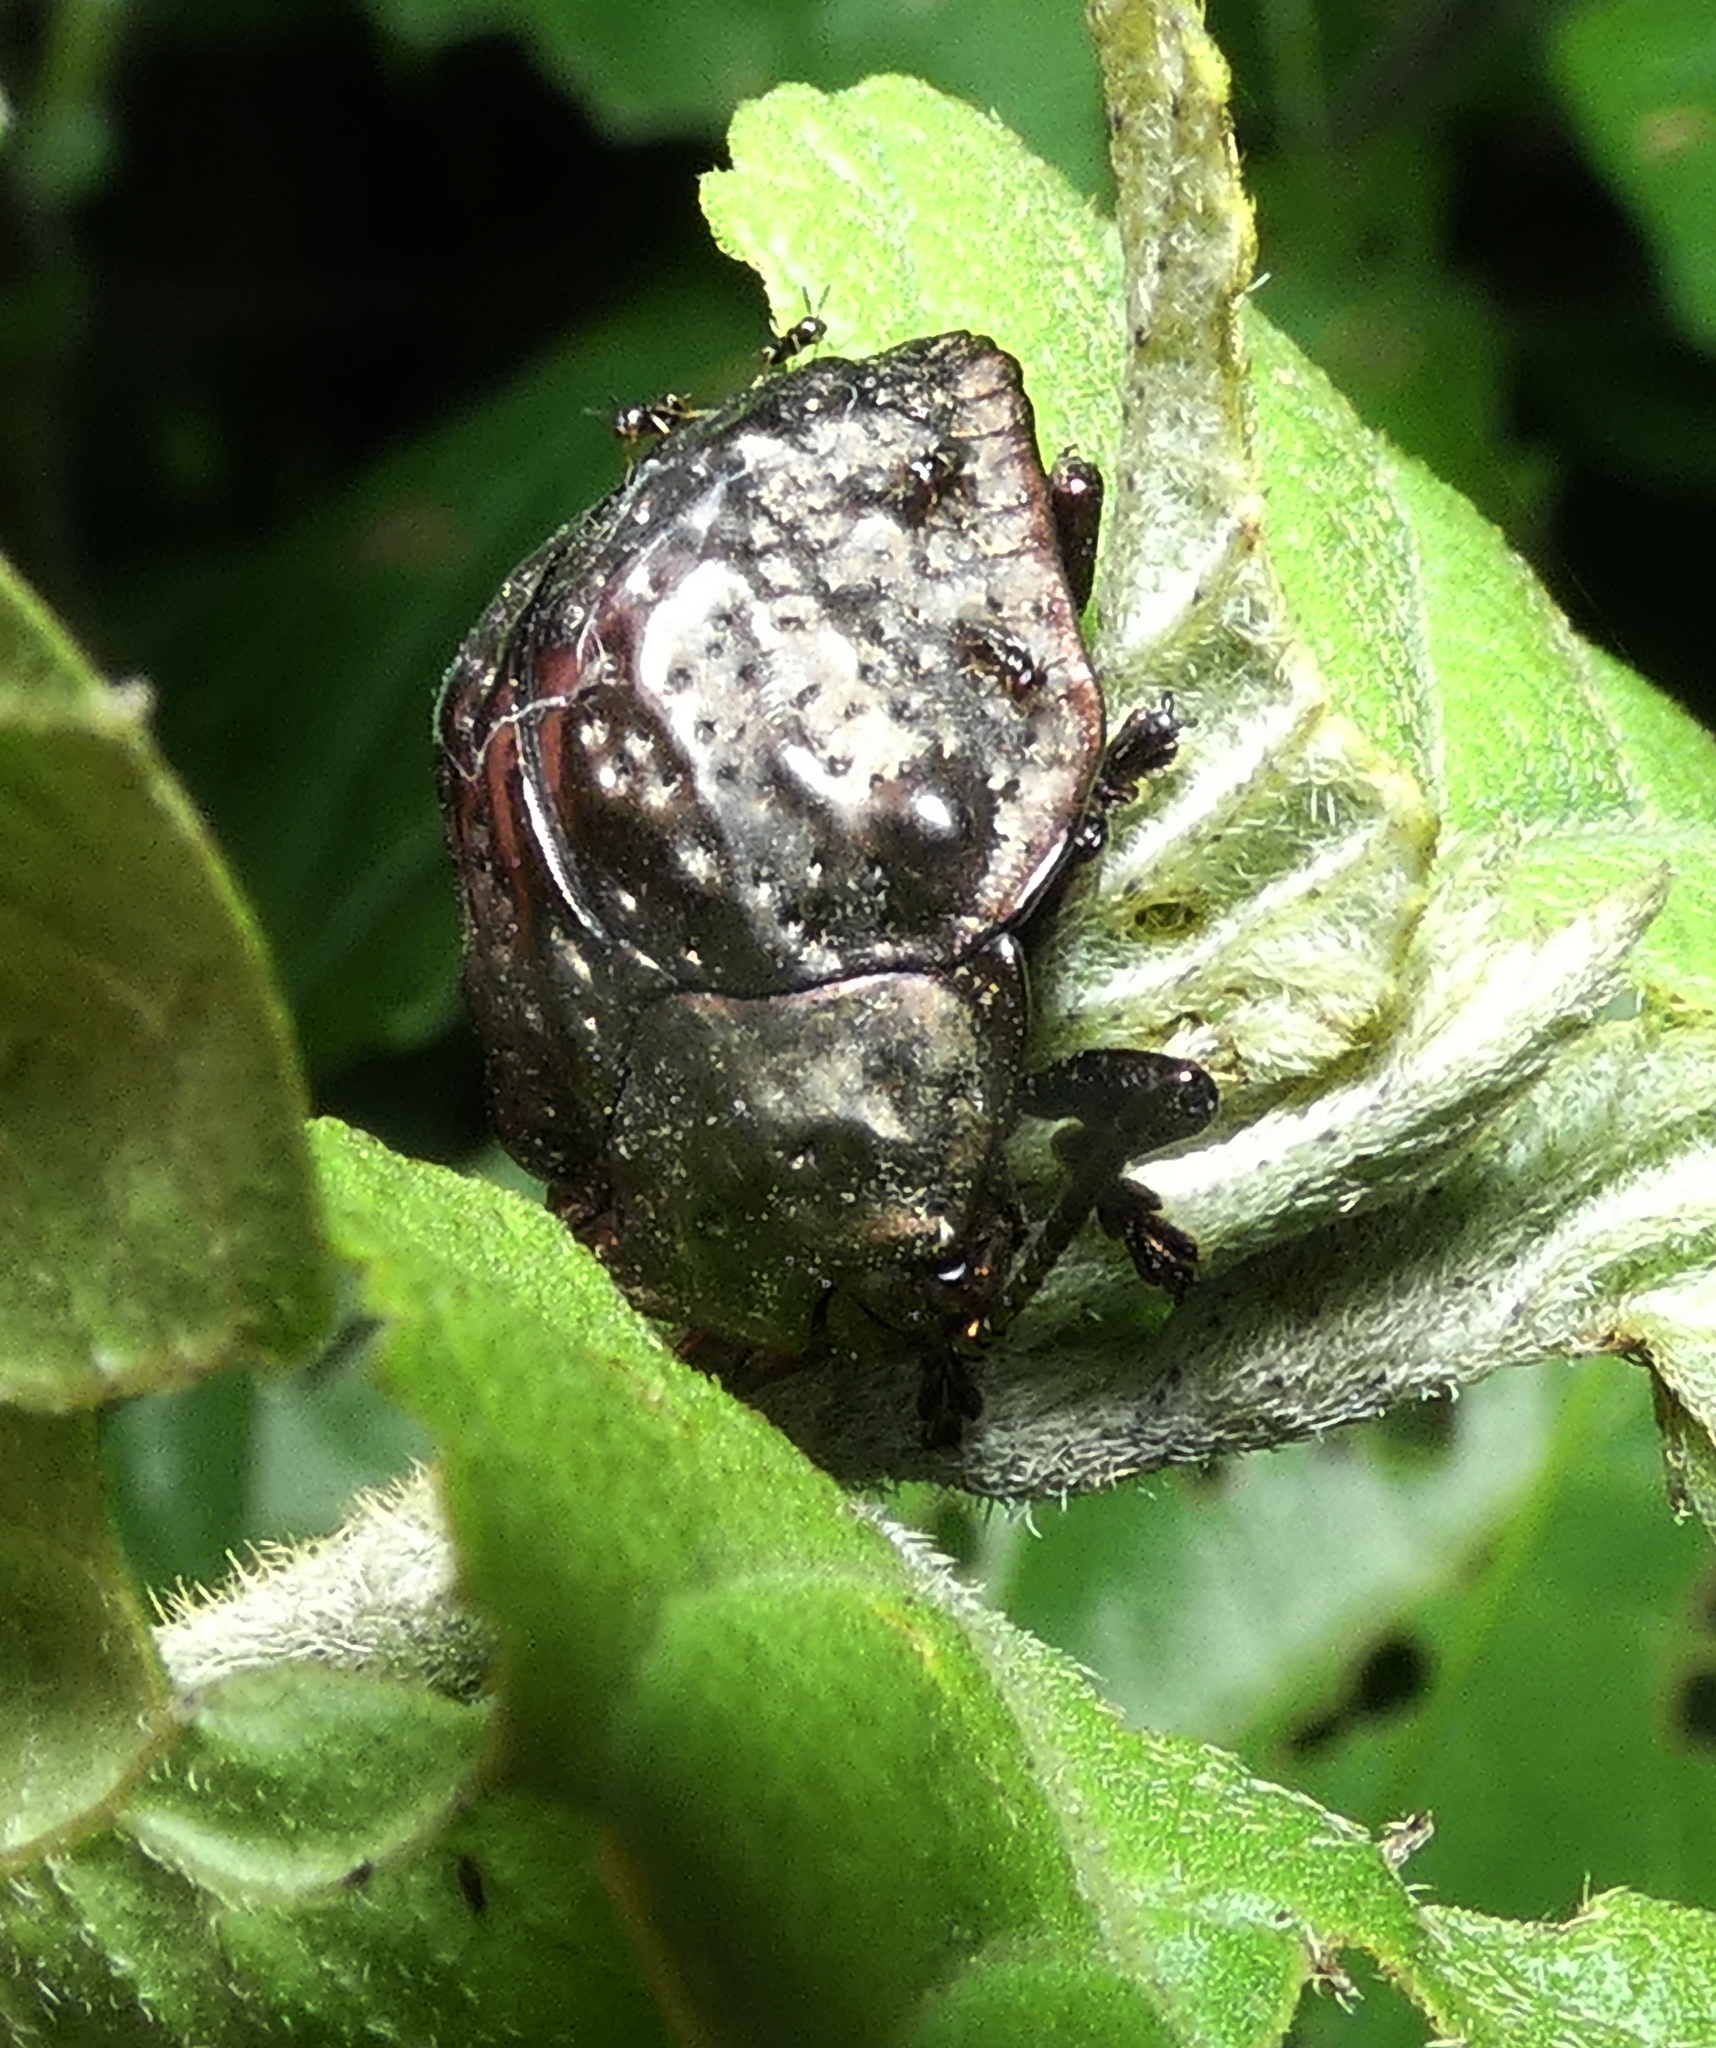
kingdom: Animalia
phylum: Arthropoda
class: Insecta
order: Coleoptera
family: Chrysomelidae
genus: Polychalca
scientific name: Polychalca aerea
